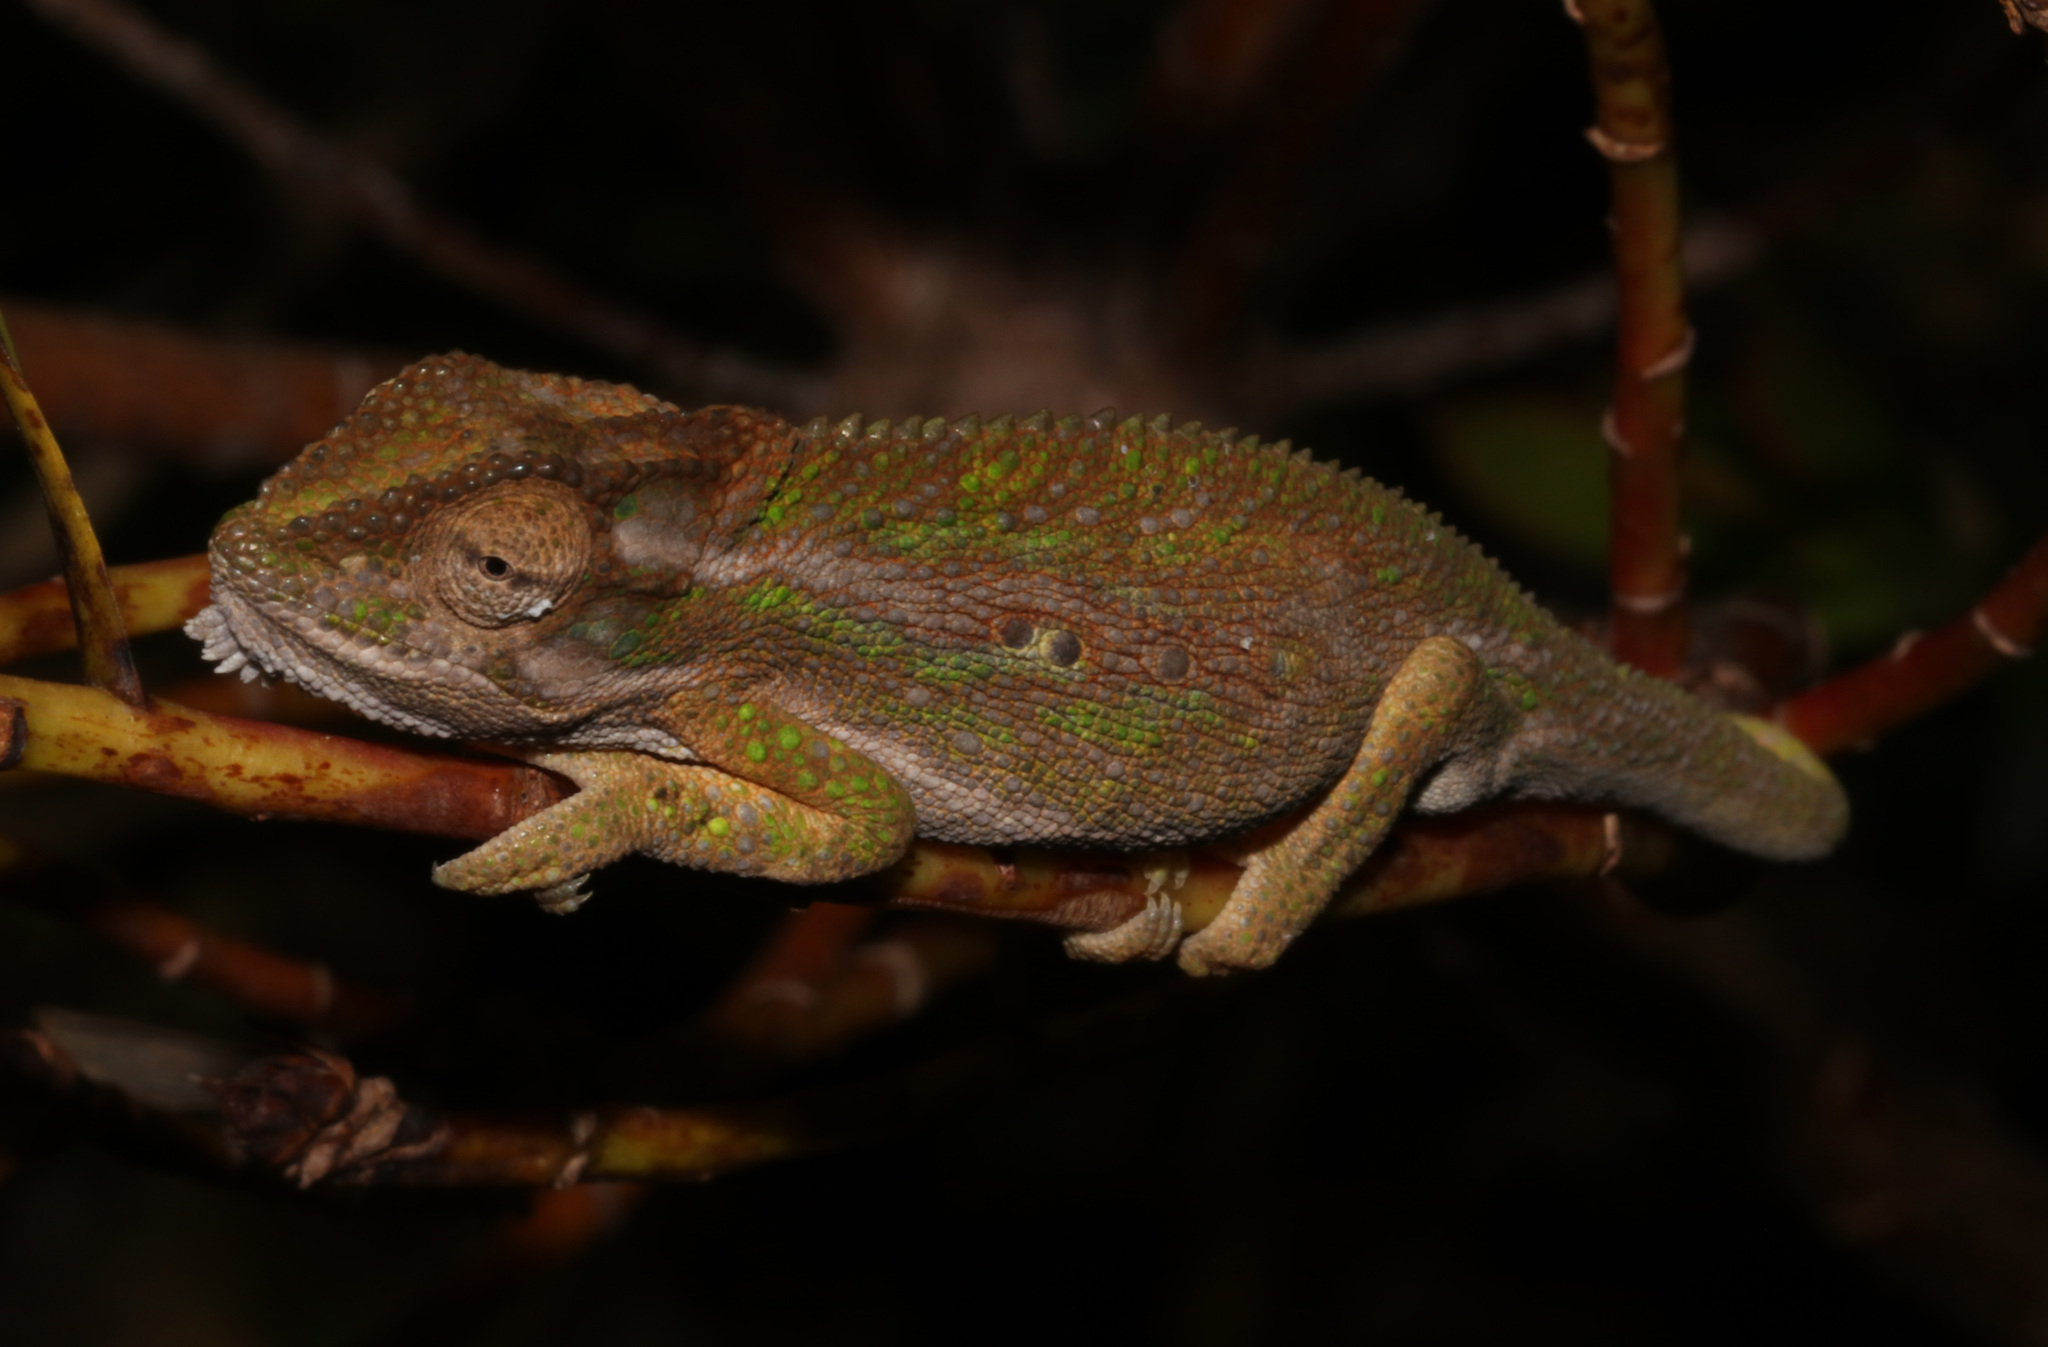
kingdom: Animalia
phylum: Chordata
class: Squamata
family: Chamaeleonidae
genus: Bradypodion
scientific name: Bradypodion pumilum
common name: Cape dwarf chameleon
